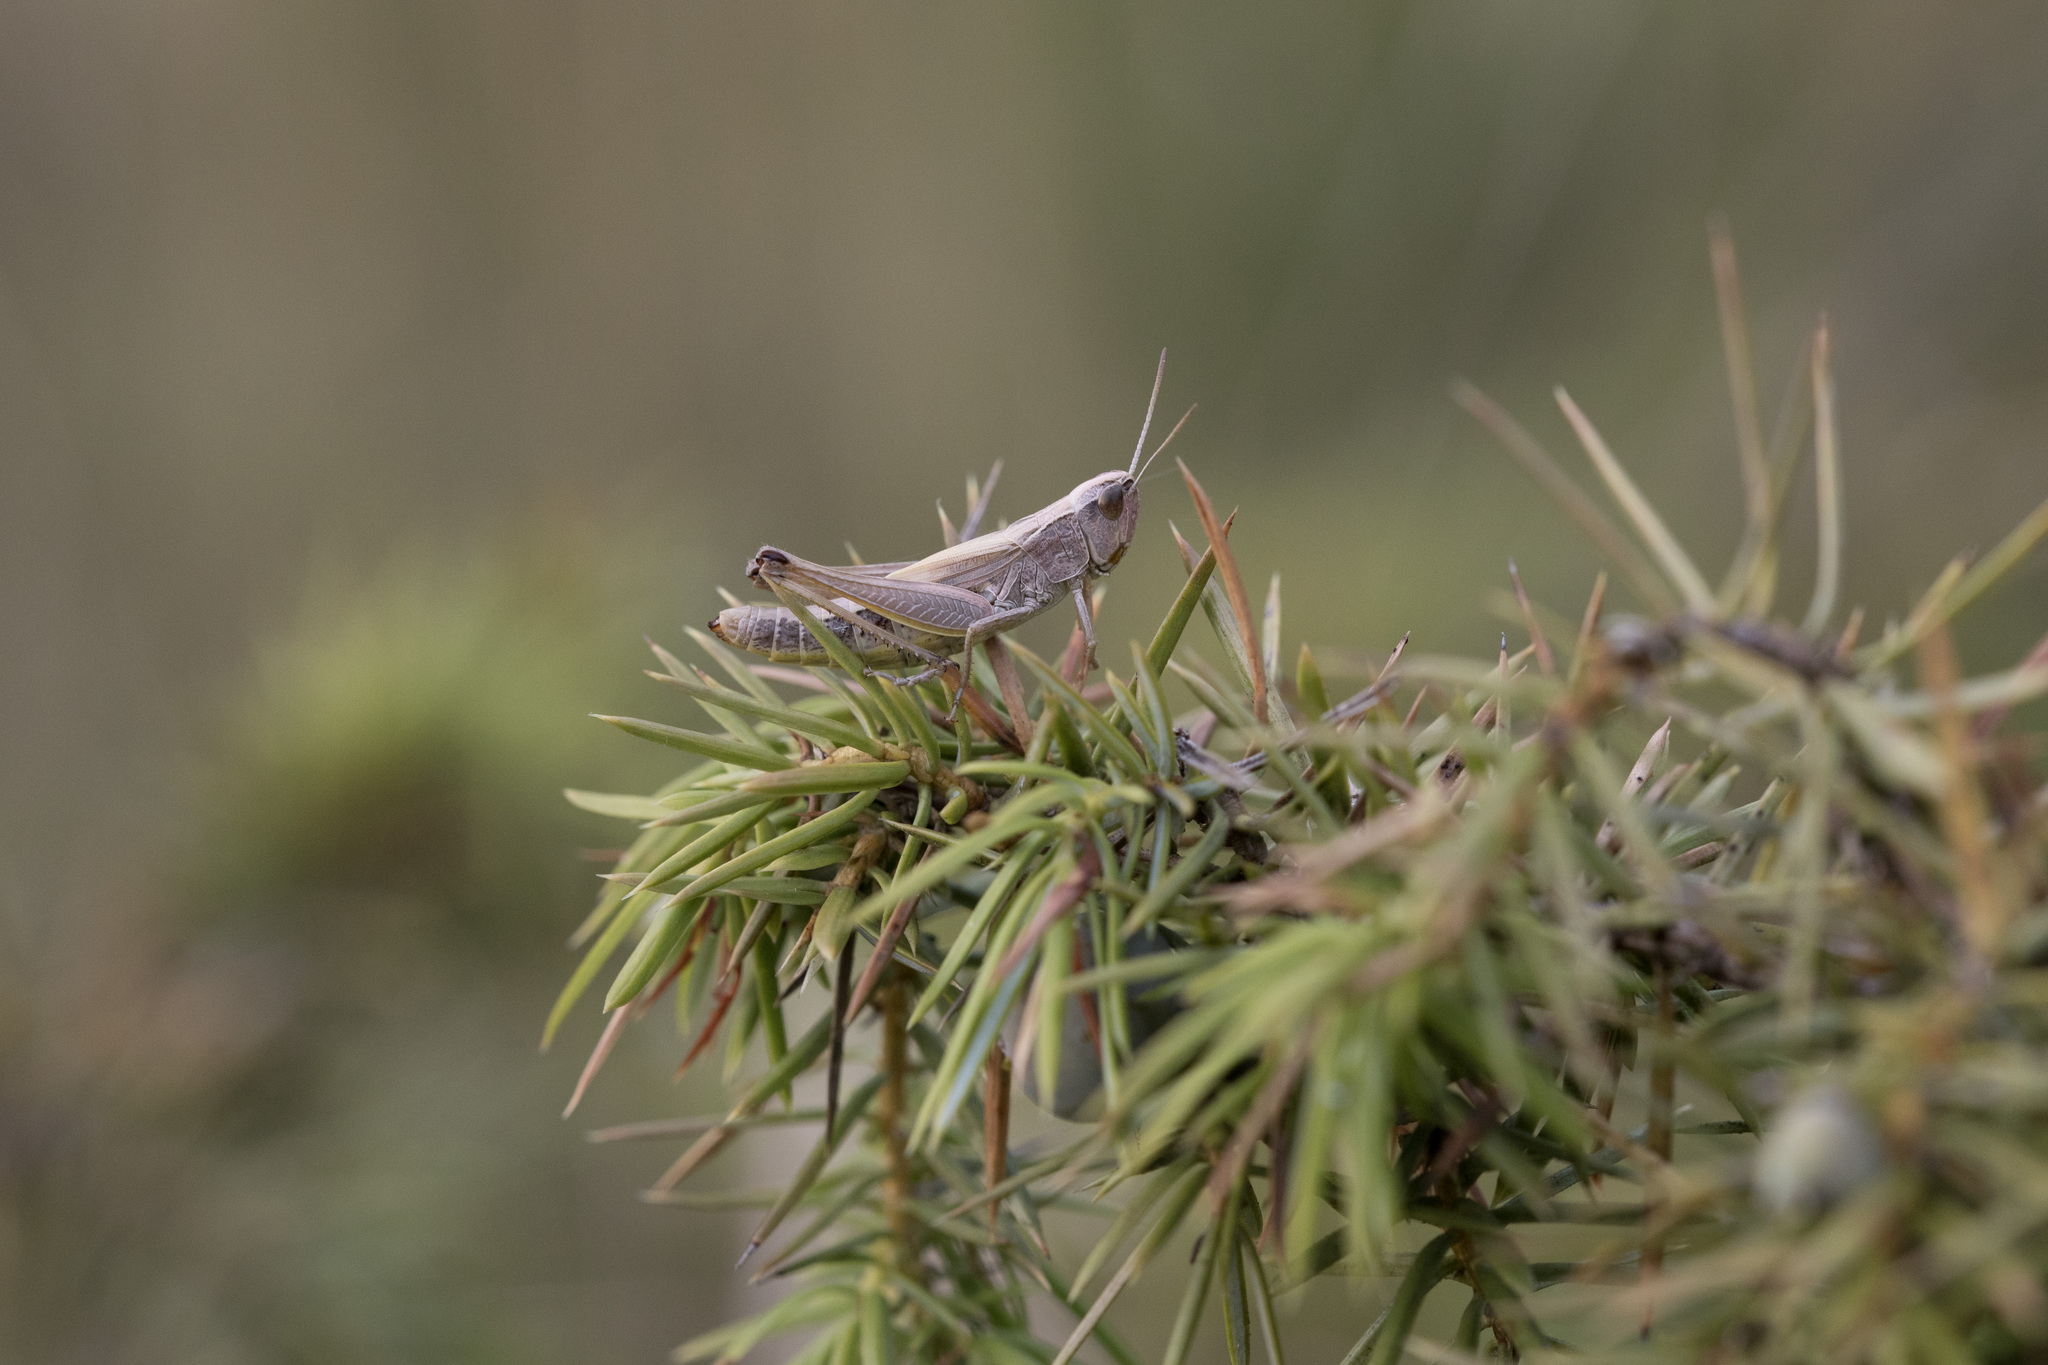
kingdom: Animalia
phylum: Arthropoda
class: Insecta
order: Orthoptera
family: Acrididae
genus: Pseudochorthippus
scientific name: Pseudochorthippus parallelus
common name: Meadow grasshopper
